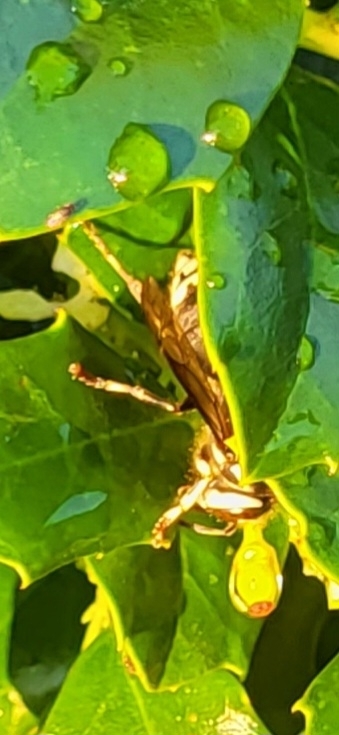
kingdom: Animalia
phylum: Arthropoda
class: Insecta
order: Hymenoptera
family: Vespidae
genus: Dolichovespula
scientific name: Dolichovespula maculata
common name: Bald-faced hornet
